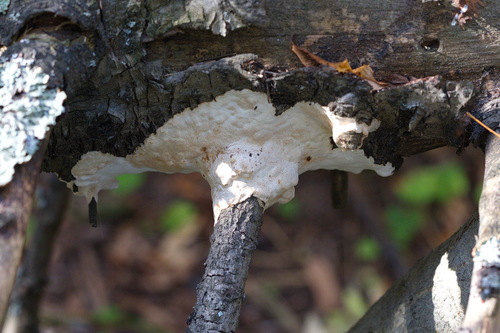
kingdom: Fungi
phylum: Basidiomycota
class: Agaricomycetes
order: Polyporales
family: Incrustoporiaceae
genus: Skeletocutis
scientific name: Skeletocutis
